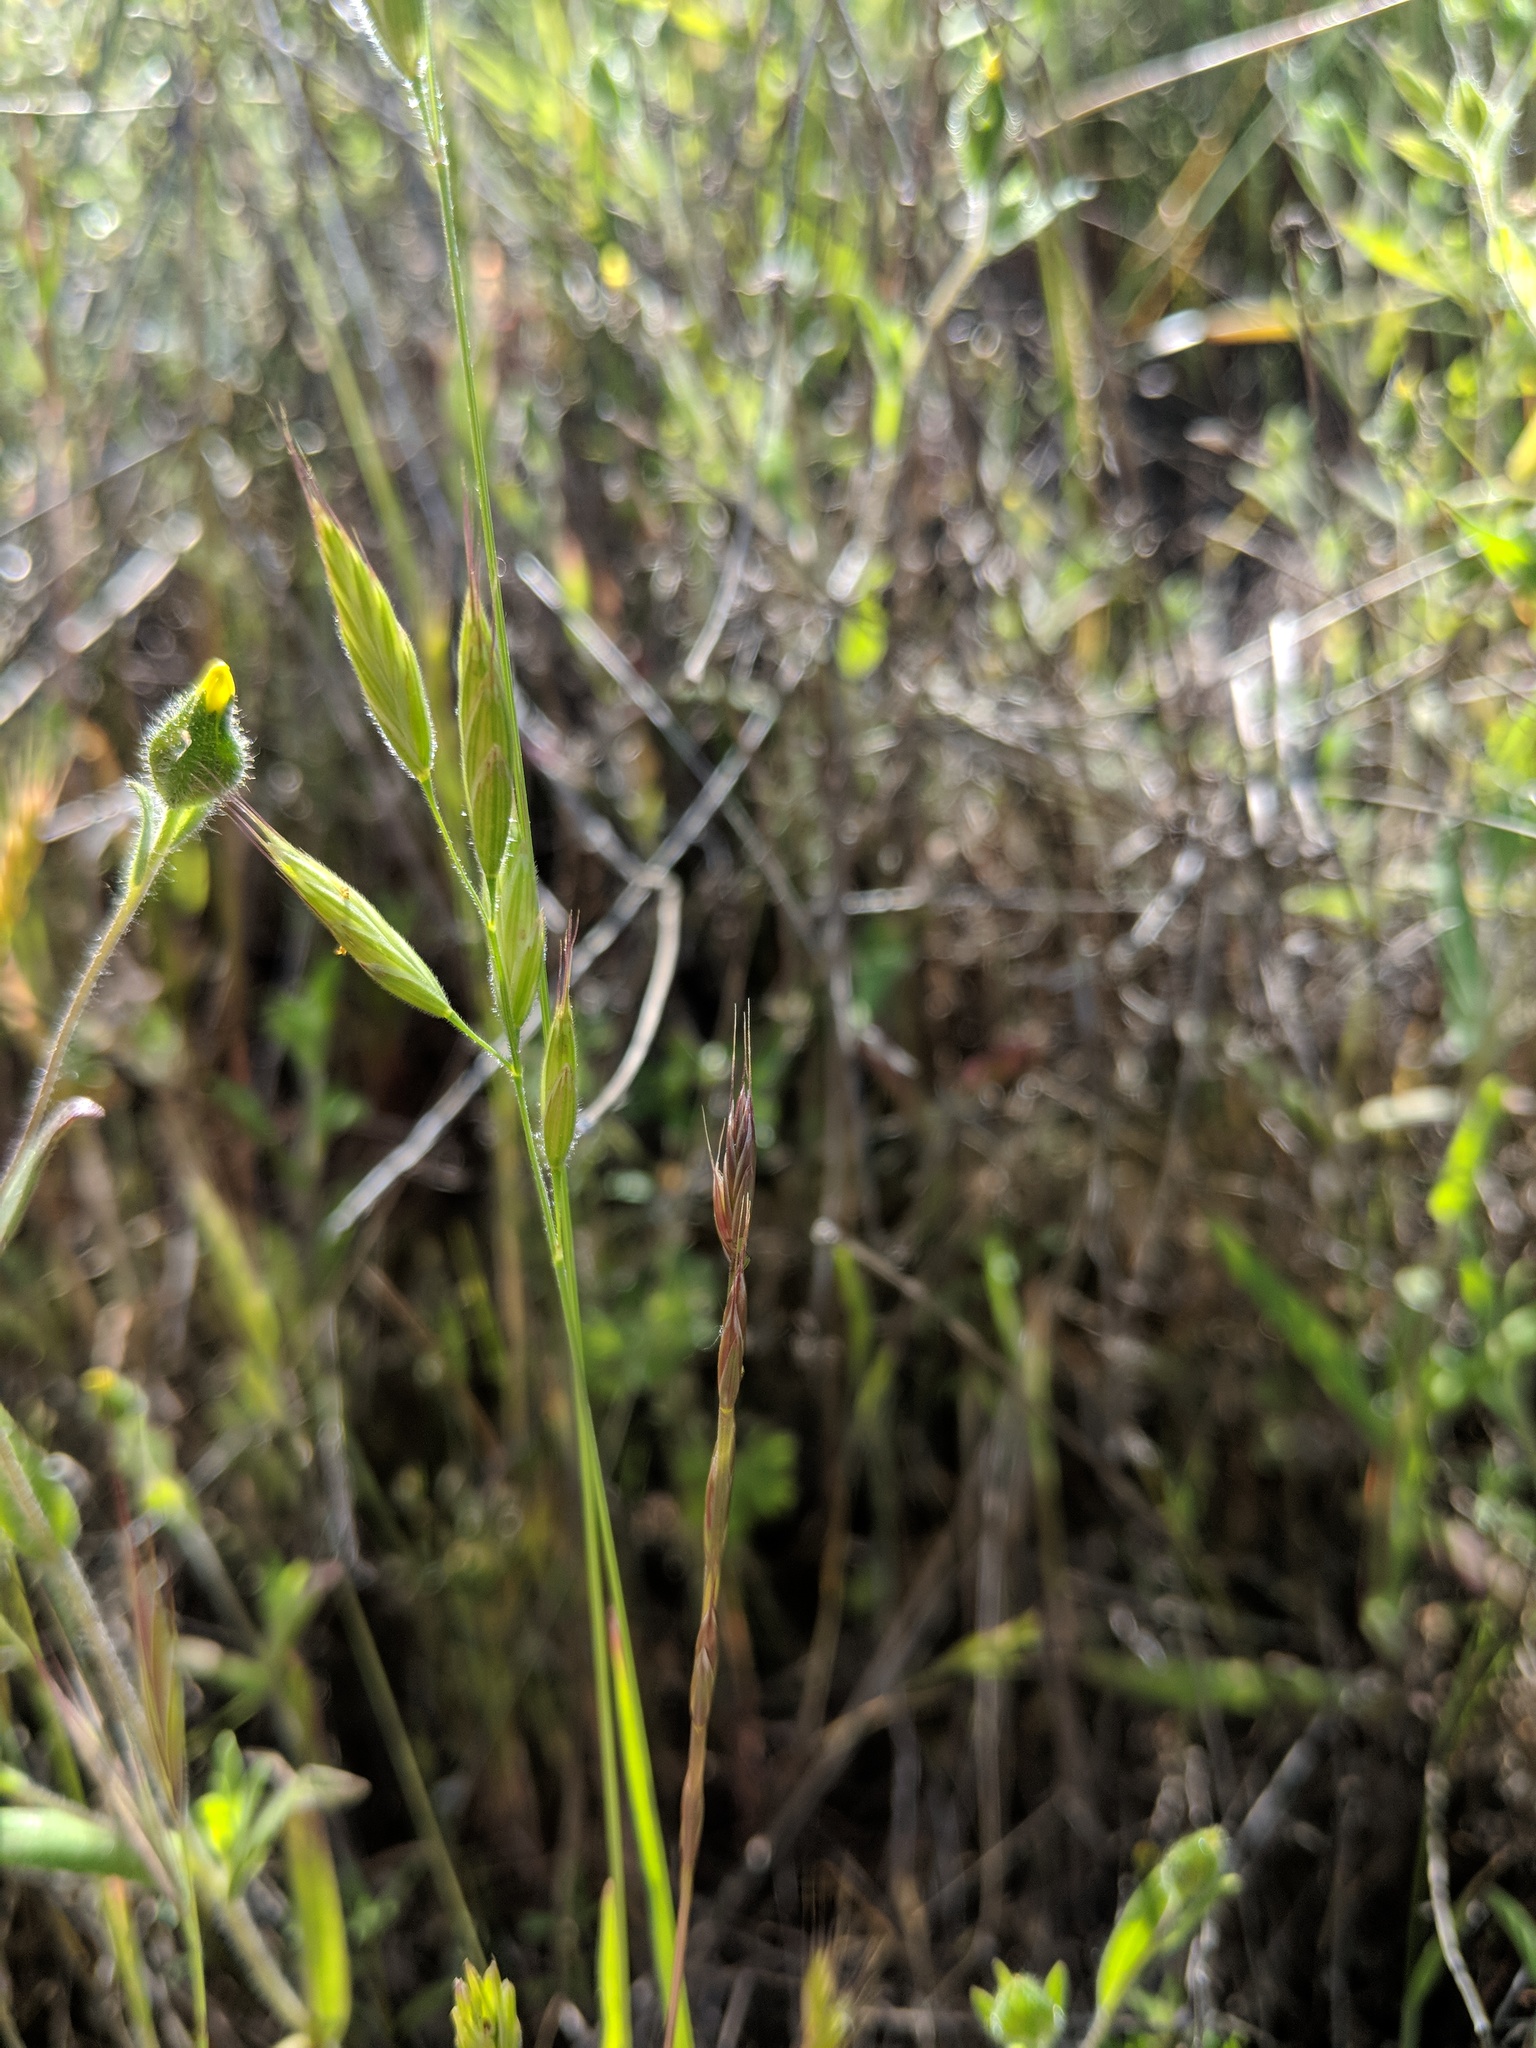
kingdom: Plantae
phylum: Tracheophyta
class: Liliopsida
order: Poales
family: Poaceae
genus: Bromus
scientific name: Bromus hordeaceus
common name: Soft brome
